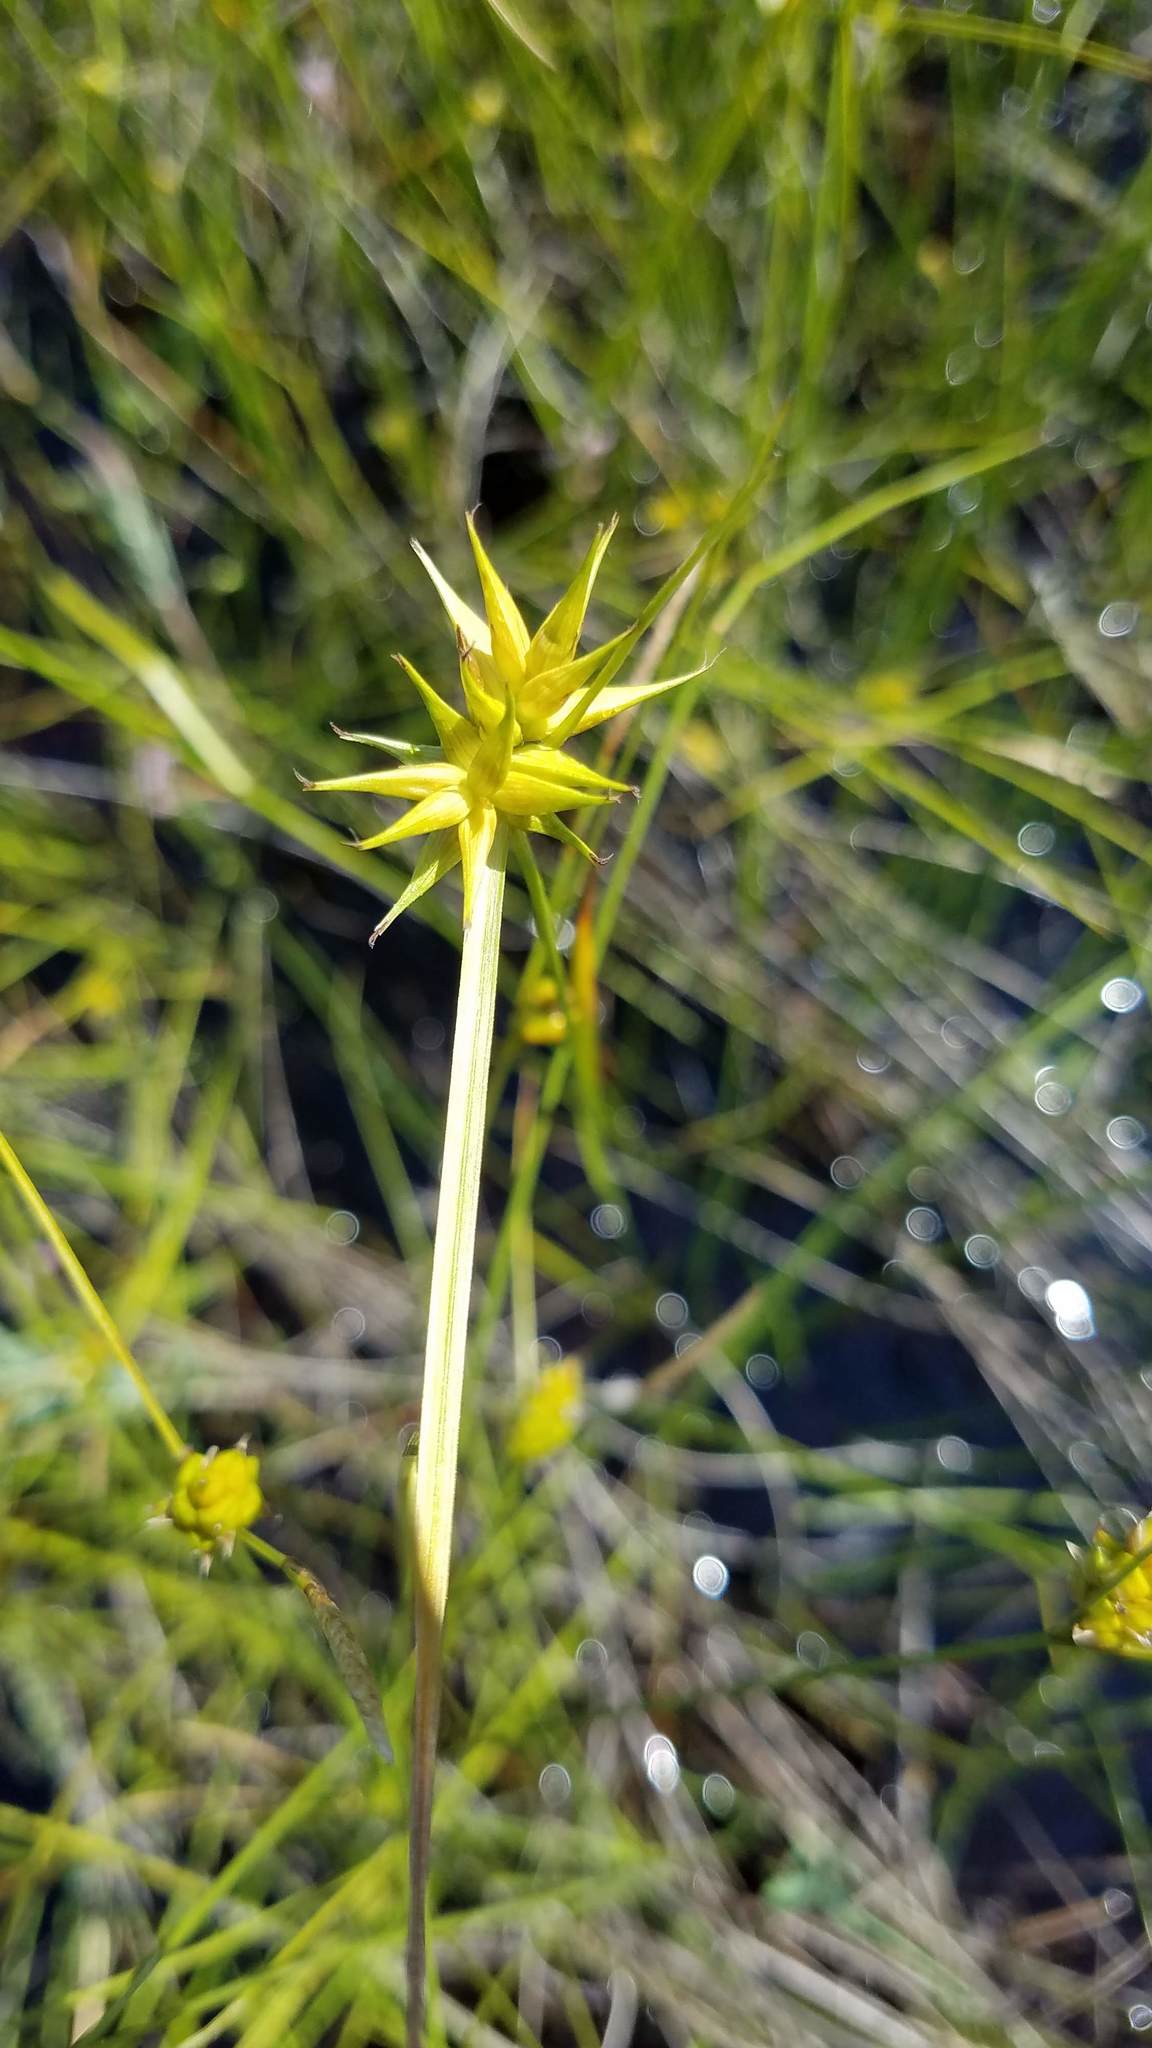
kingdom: Plantae
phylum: Tracheophyta
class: Liliopsida
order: Poales
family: Cyperaceae
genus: Carex
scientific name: Carex michauxiana
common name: Michaux's sedge
